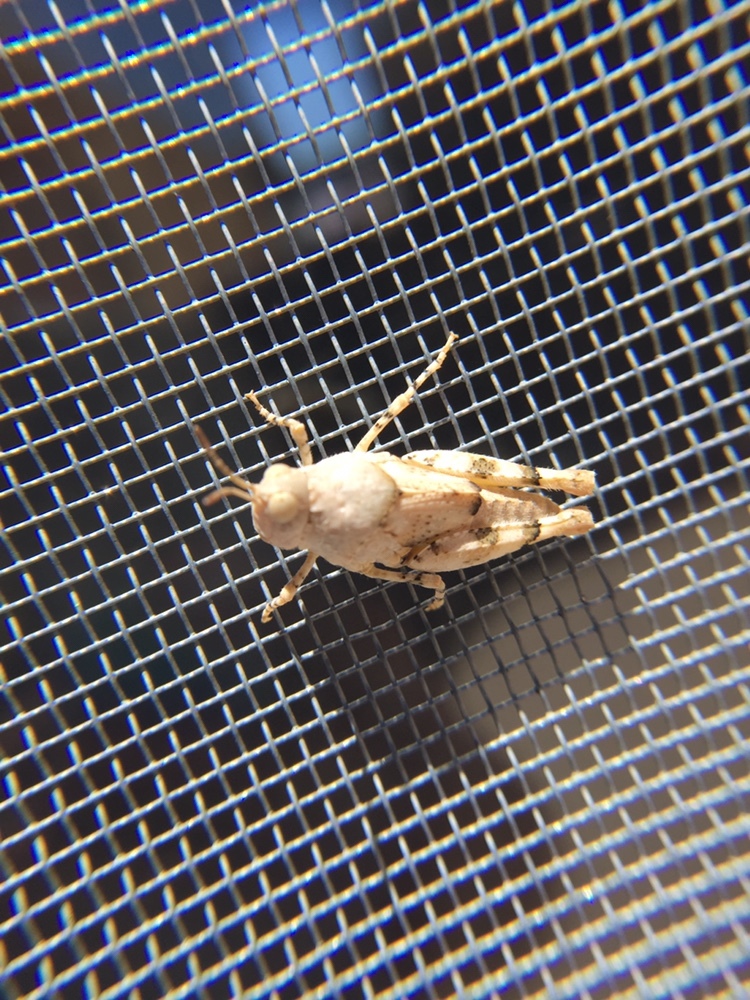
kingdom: Animalia
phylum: Arthropoda
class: Insecta
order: Orthoptera
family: Acrididae
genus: Cibolacris
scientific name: Cibolacris parviceps
